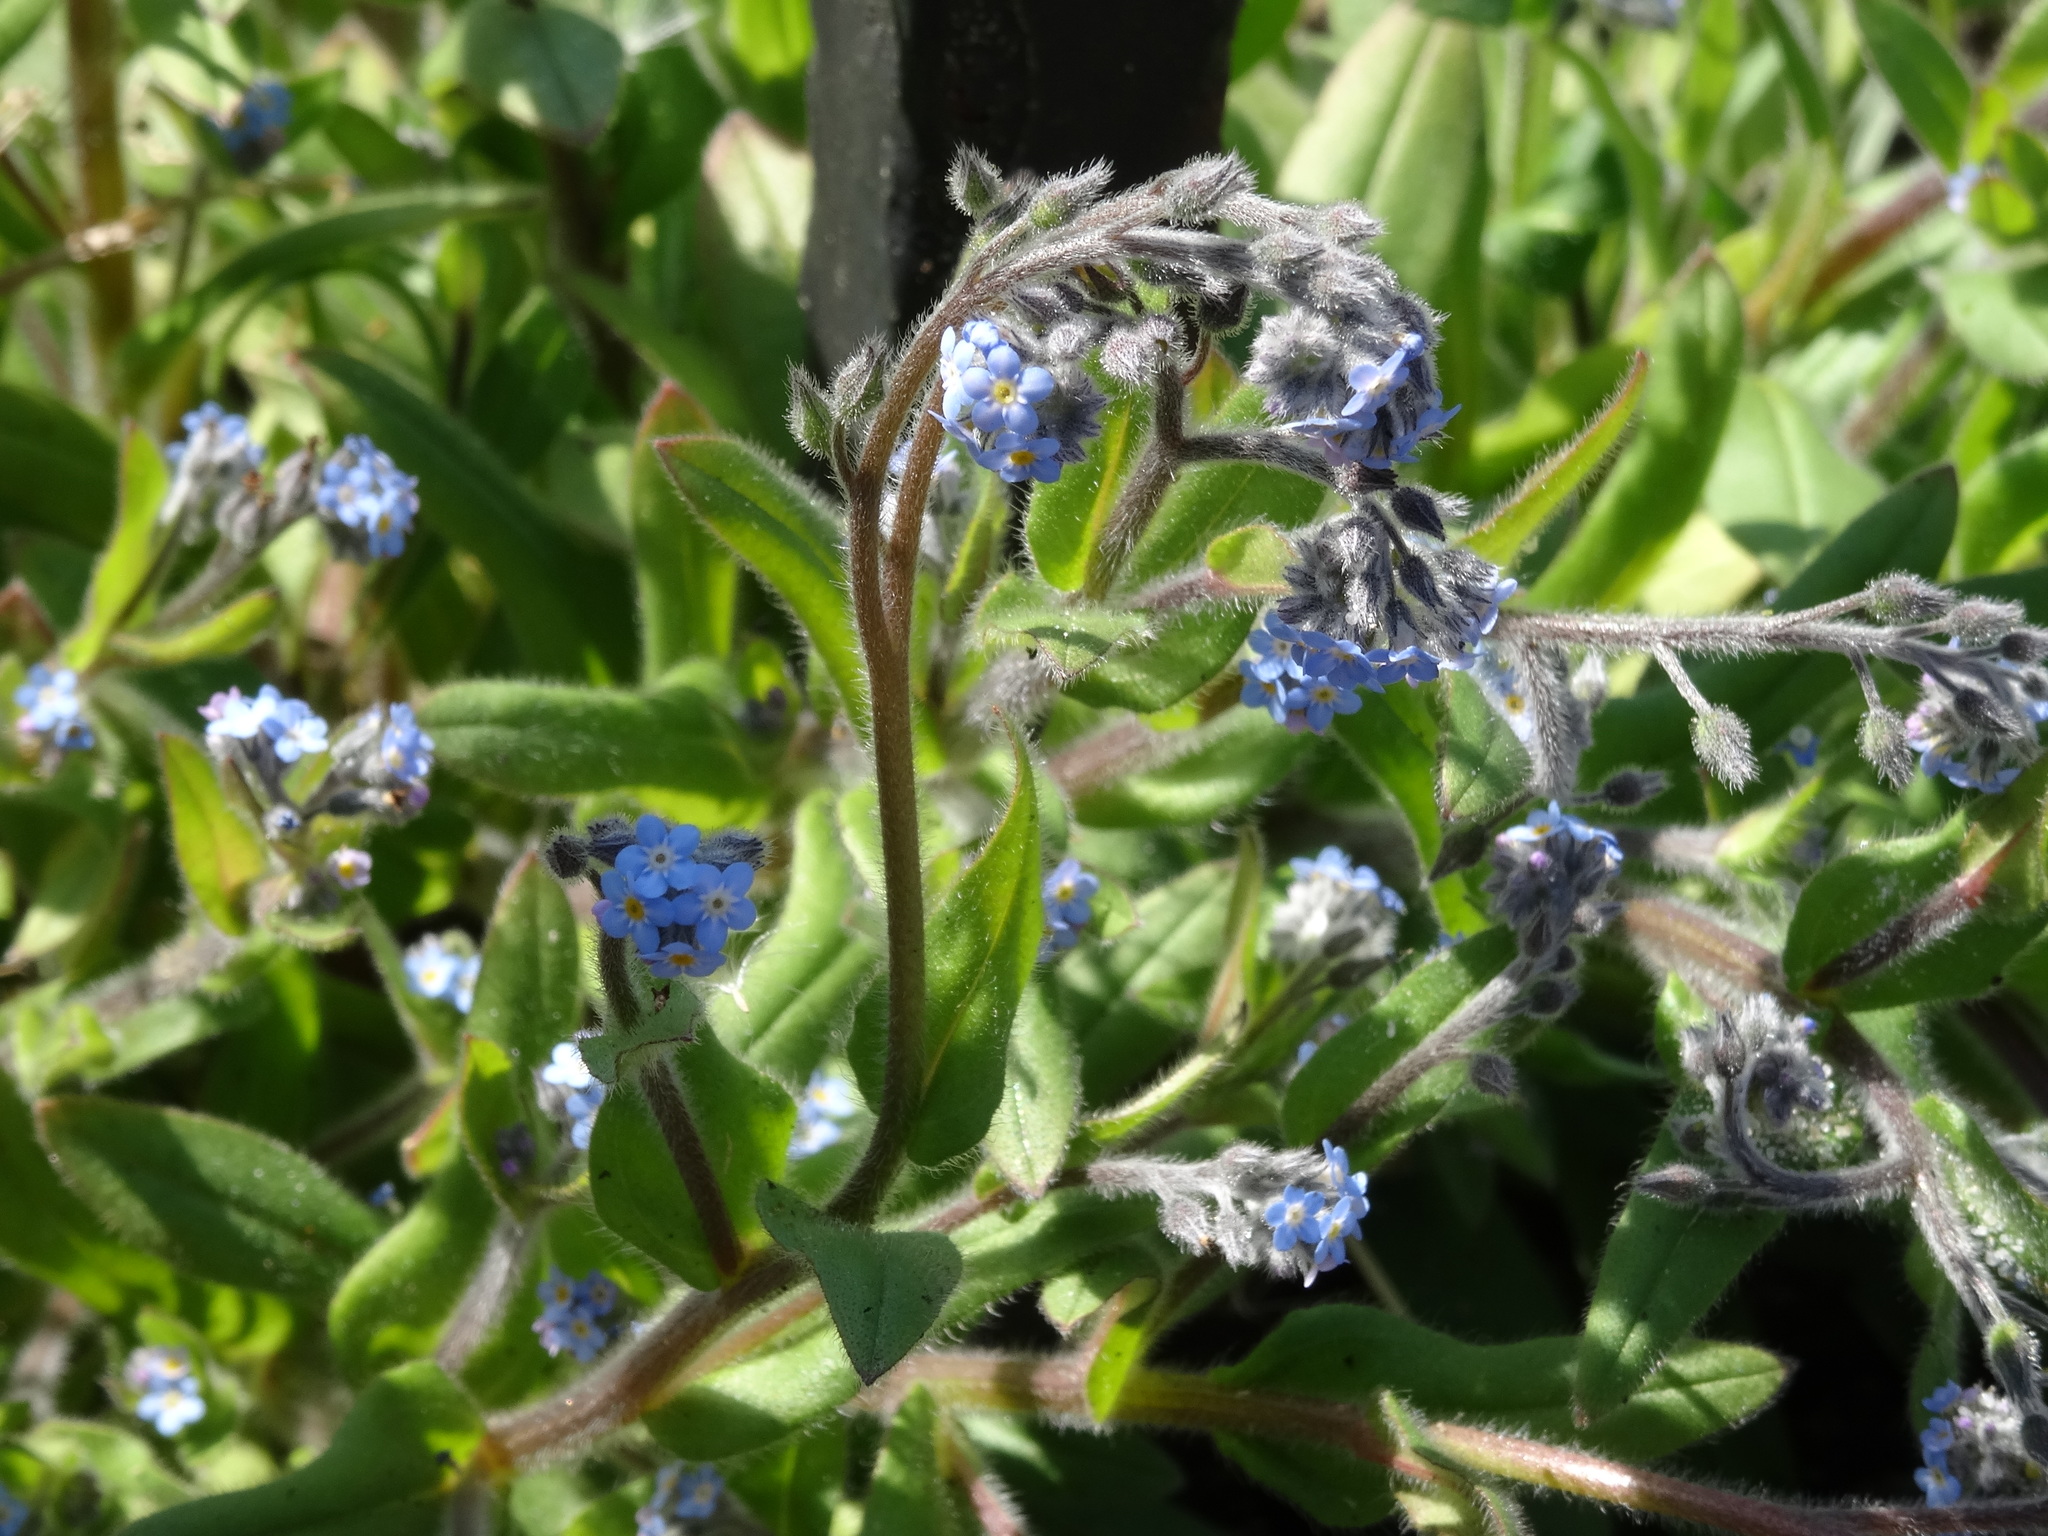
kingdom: Plantae
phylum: Tracheophyta
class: Magnoliopsida
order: Boraginales
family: Boraginaceae
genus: Myosotis
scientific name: Myosotis arvensis
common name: Field forget-me-not
